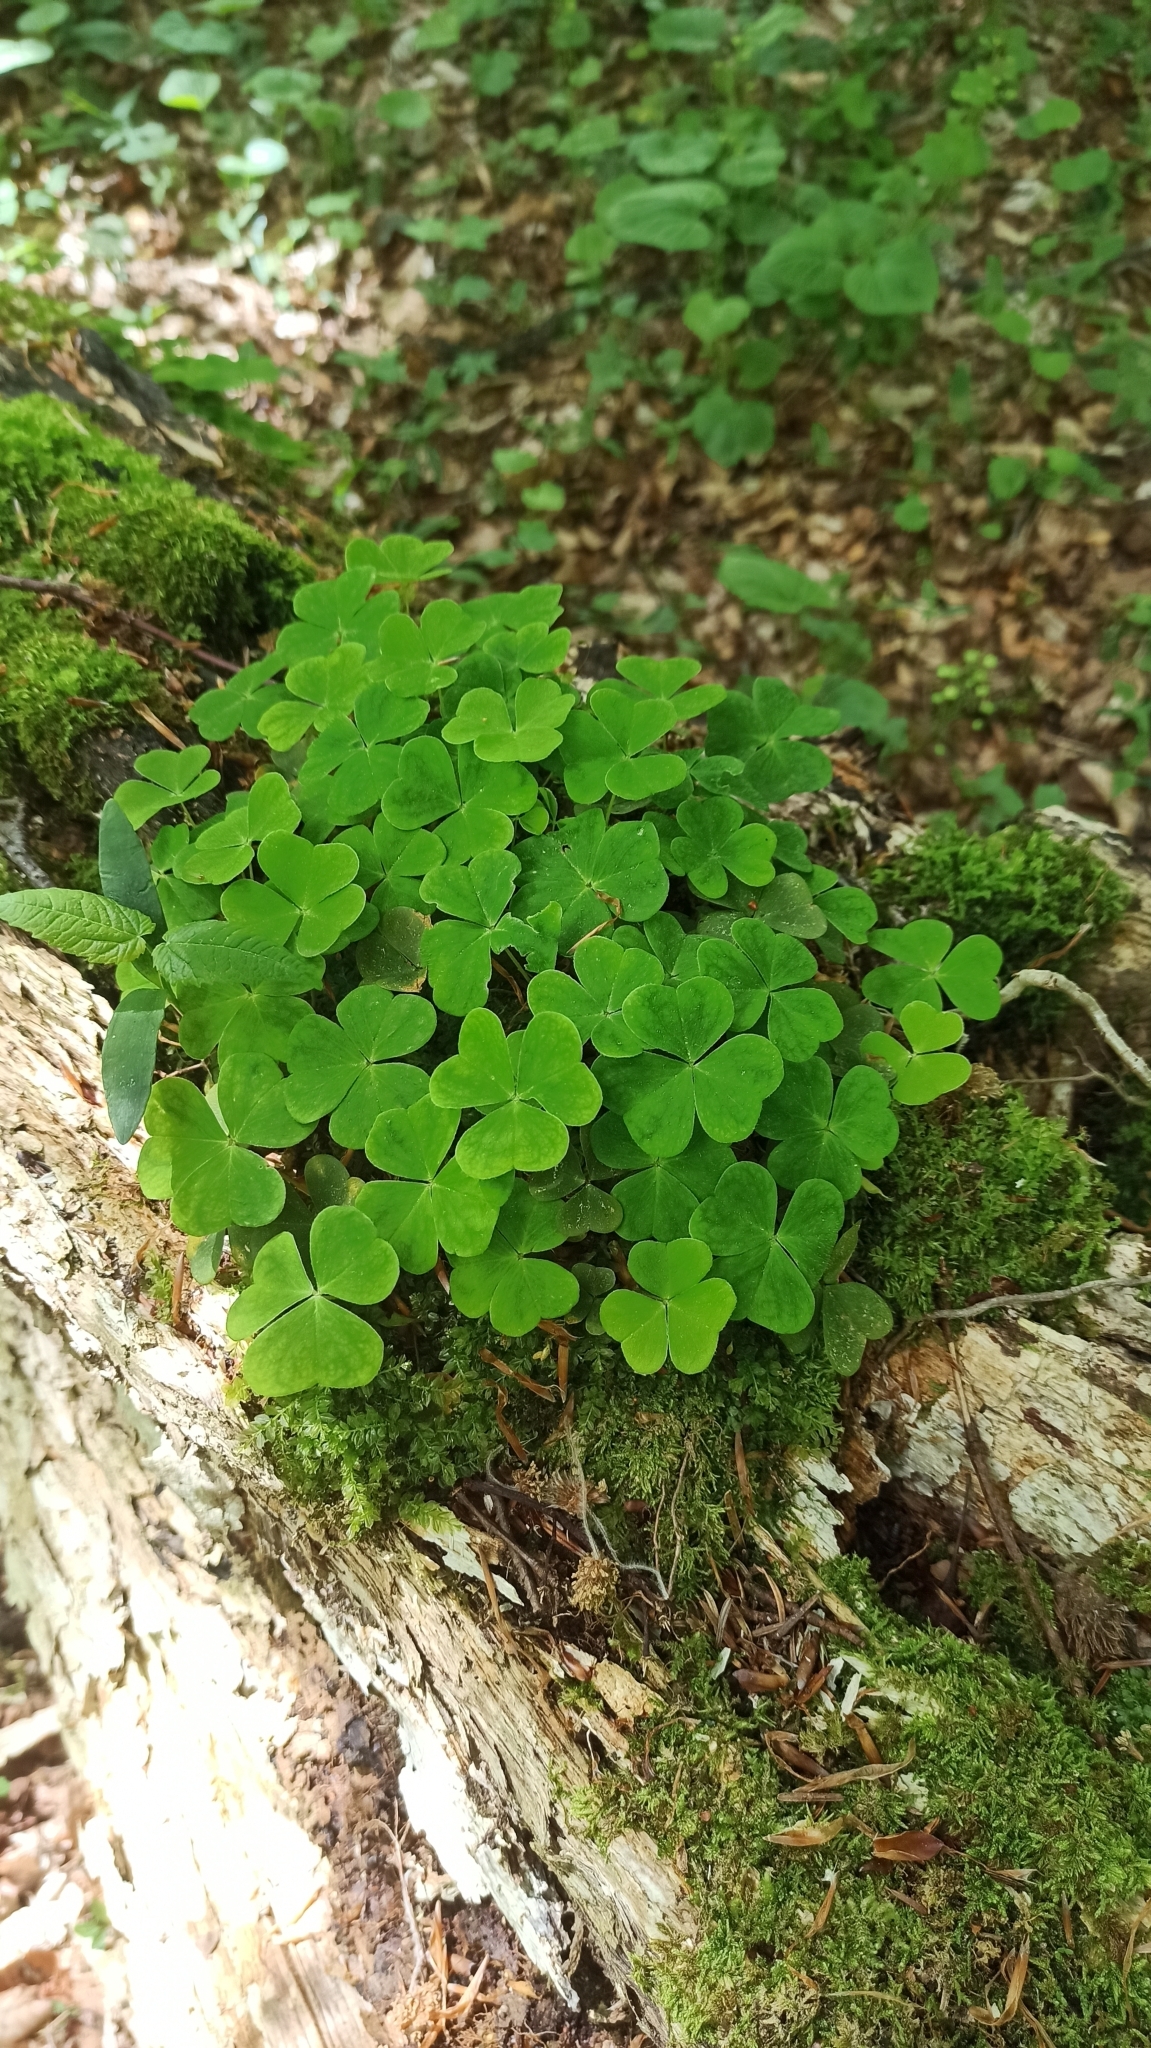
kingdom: Plantae
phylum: Tracheophyta
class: Magnoliopsida
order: Oxalidales
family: Oxalidaceae
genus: Oxalis
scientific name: Oxalis acetosella
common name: Wood-sorrel
